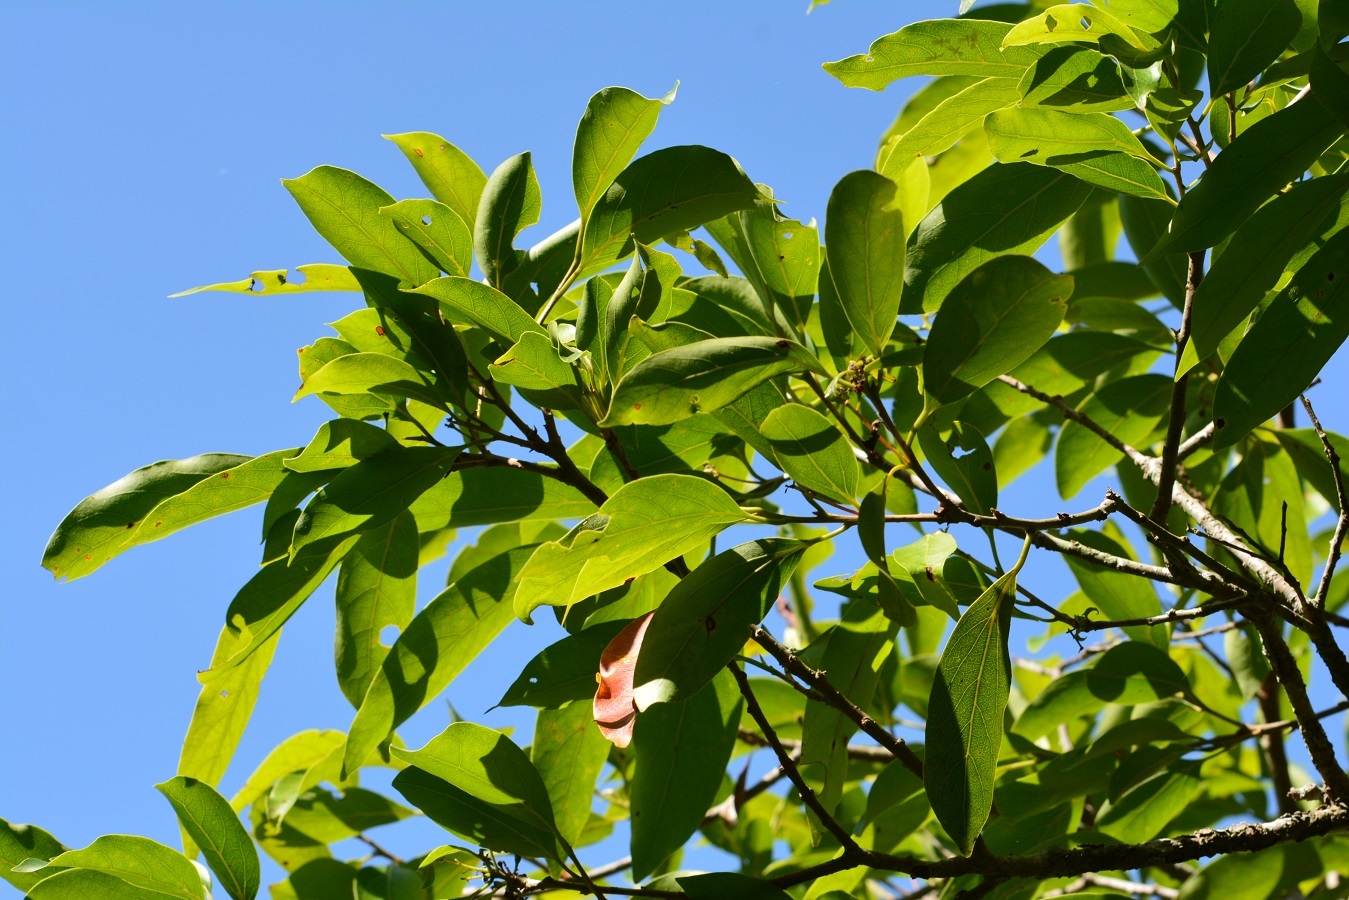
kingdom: Plantae
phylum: Tracheophyta
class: Magnoliopsida
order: Laurales
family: Lauraceae
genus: Damburneya
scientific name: Damburneya salicifolia
